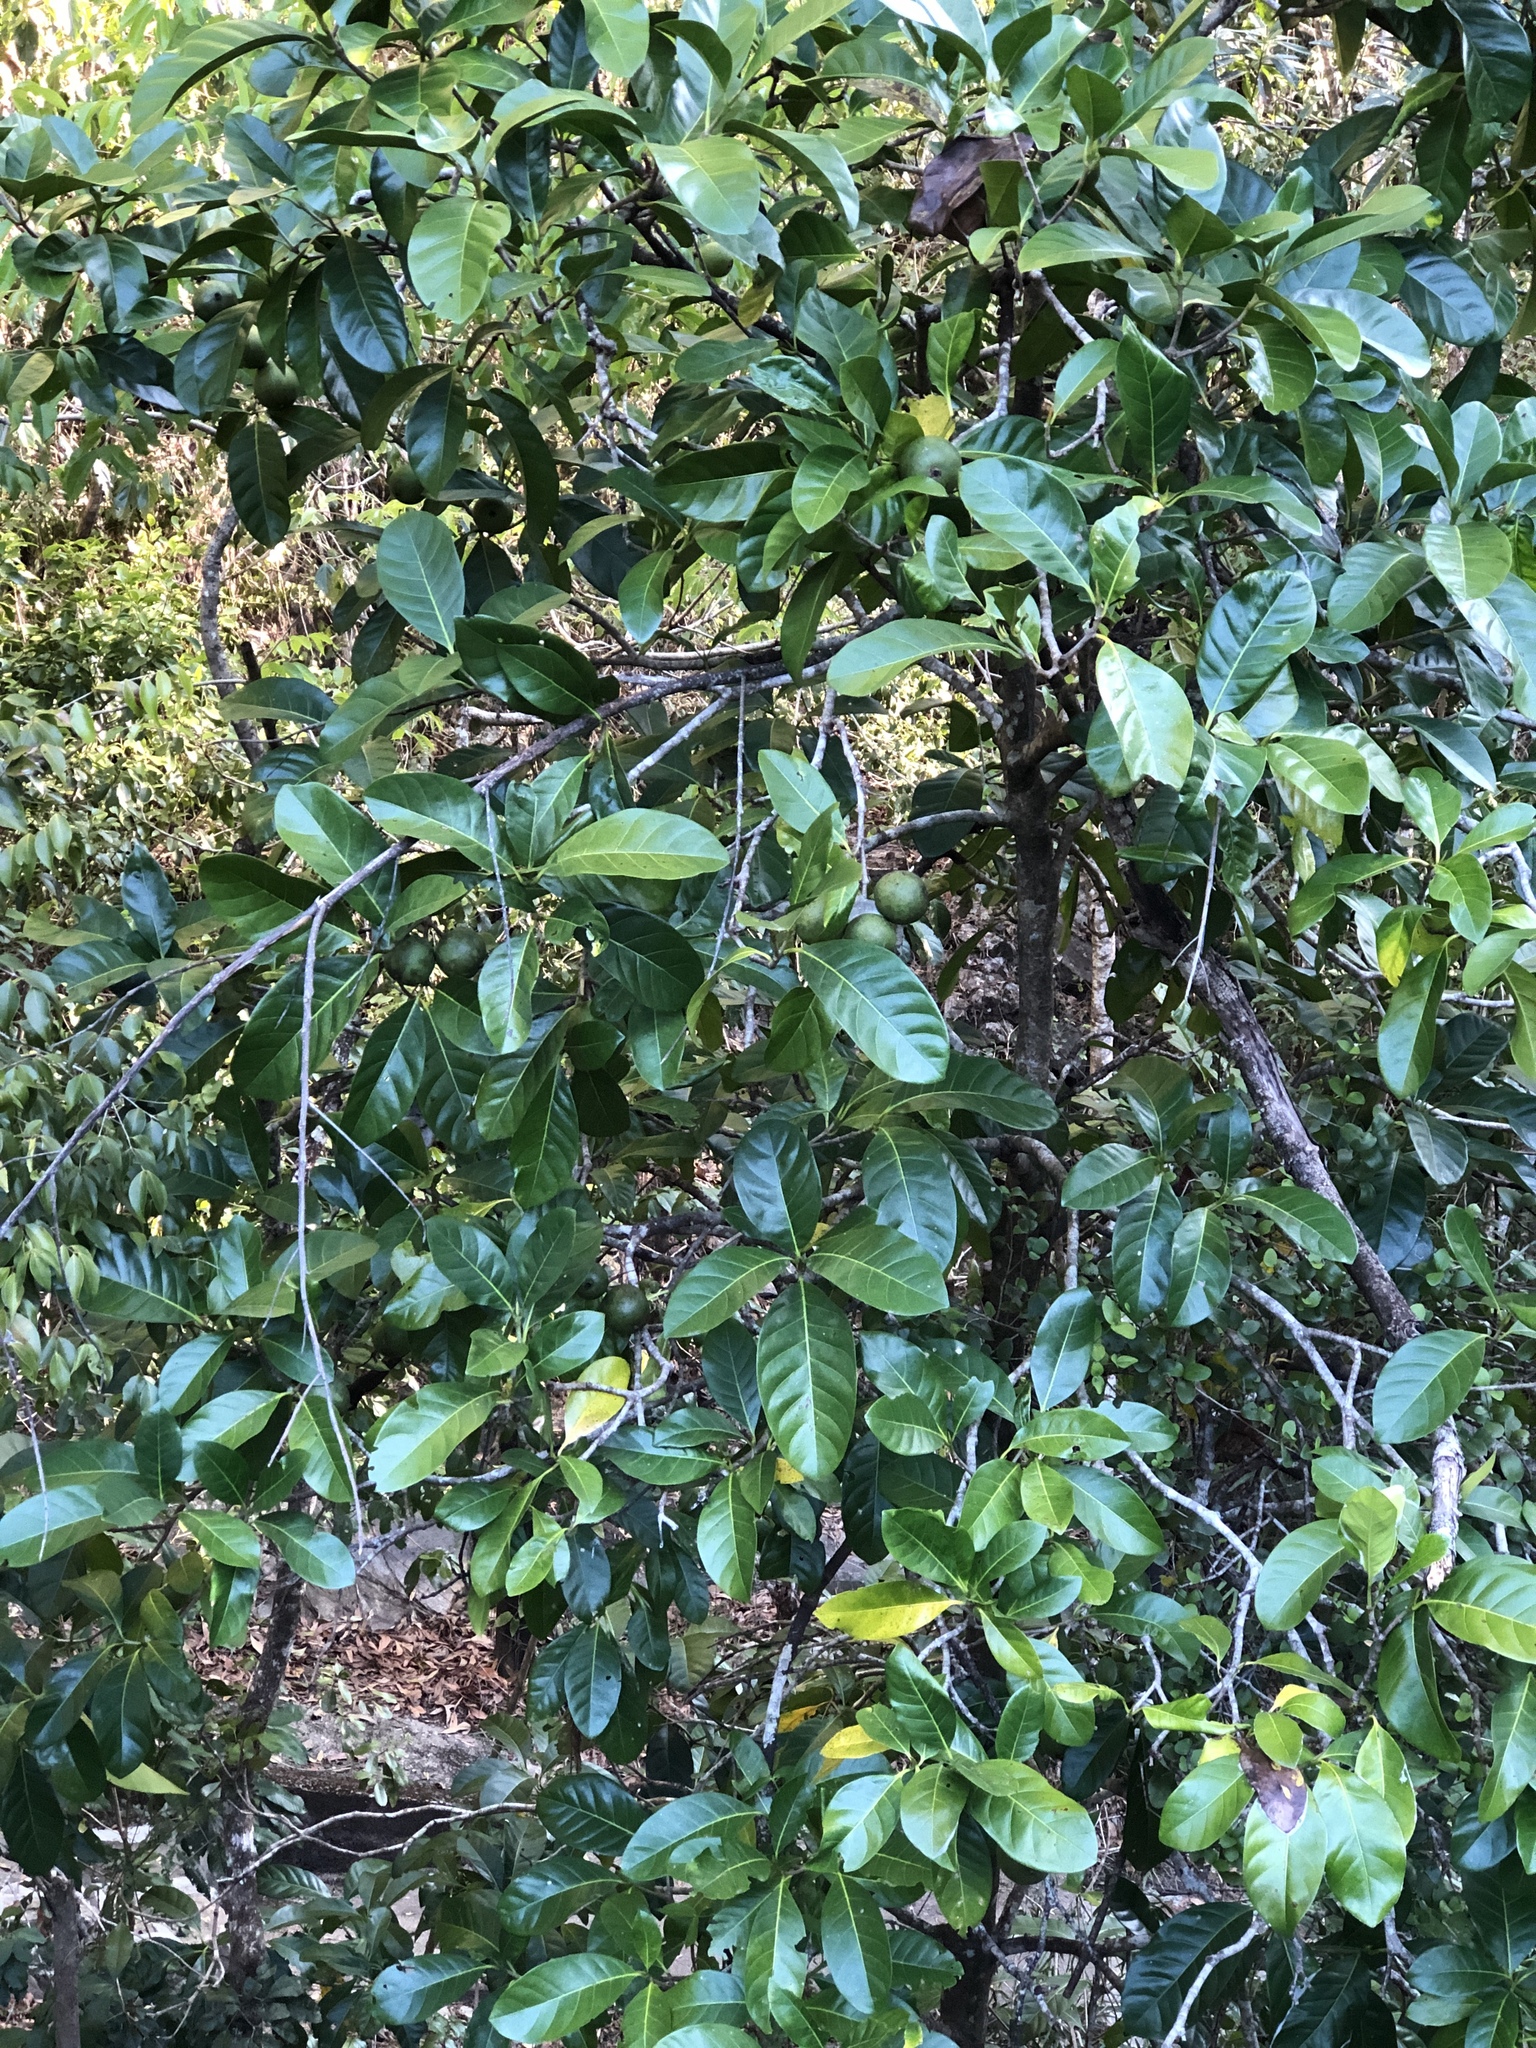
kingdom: Plantae
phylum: Tracheophyta
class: Magnoliopsida
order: Gentianales
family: Rubiaceae
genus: Atractocarpus
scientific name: Atractocarpus fitzalanii
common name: Randia
